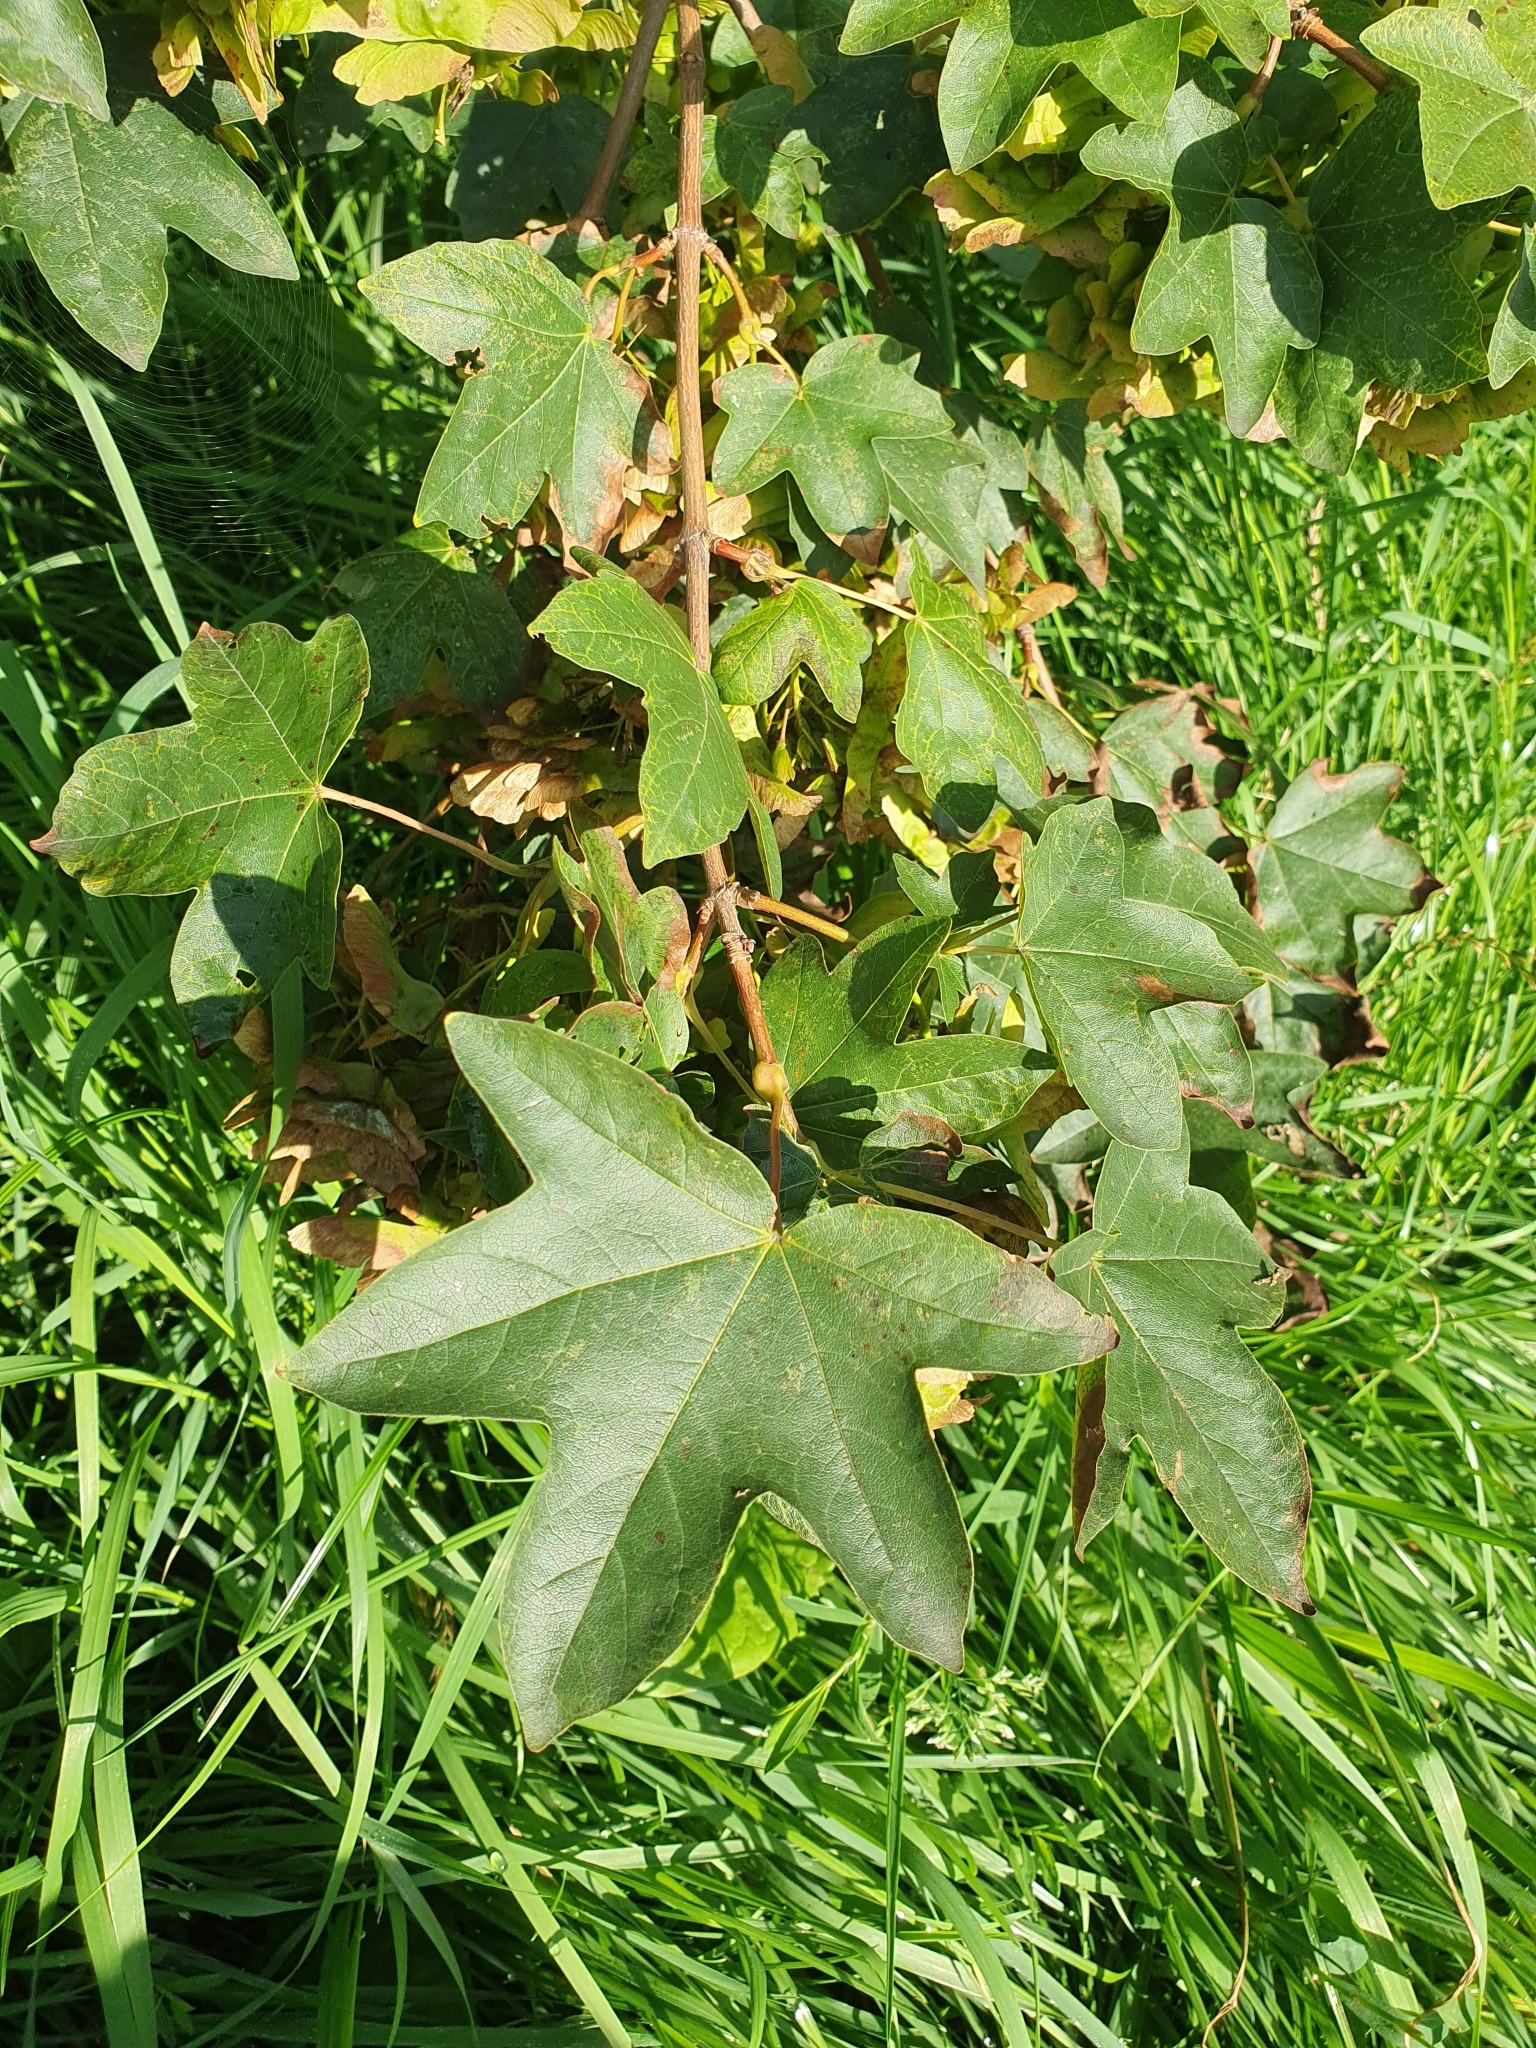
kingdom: Plantae
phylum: Tracheophyta
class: Magnoliopsida
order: Sapindales
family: Sapindaceae
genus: Acer
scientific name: Acer campestre
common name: Field maple
